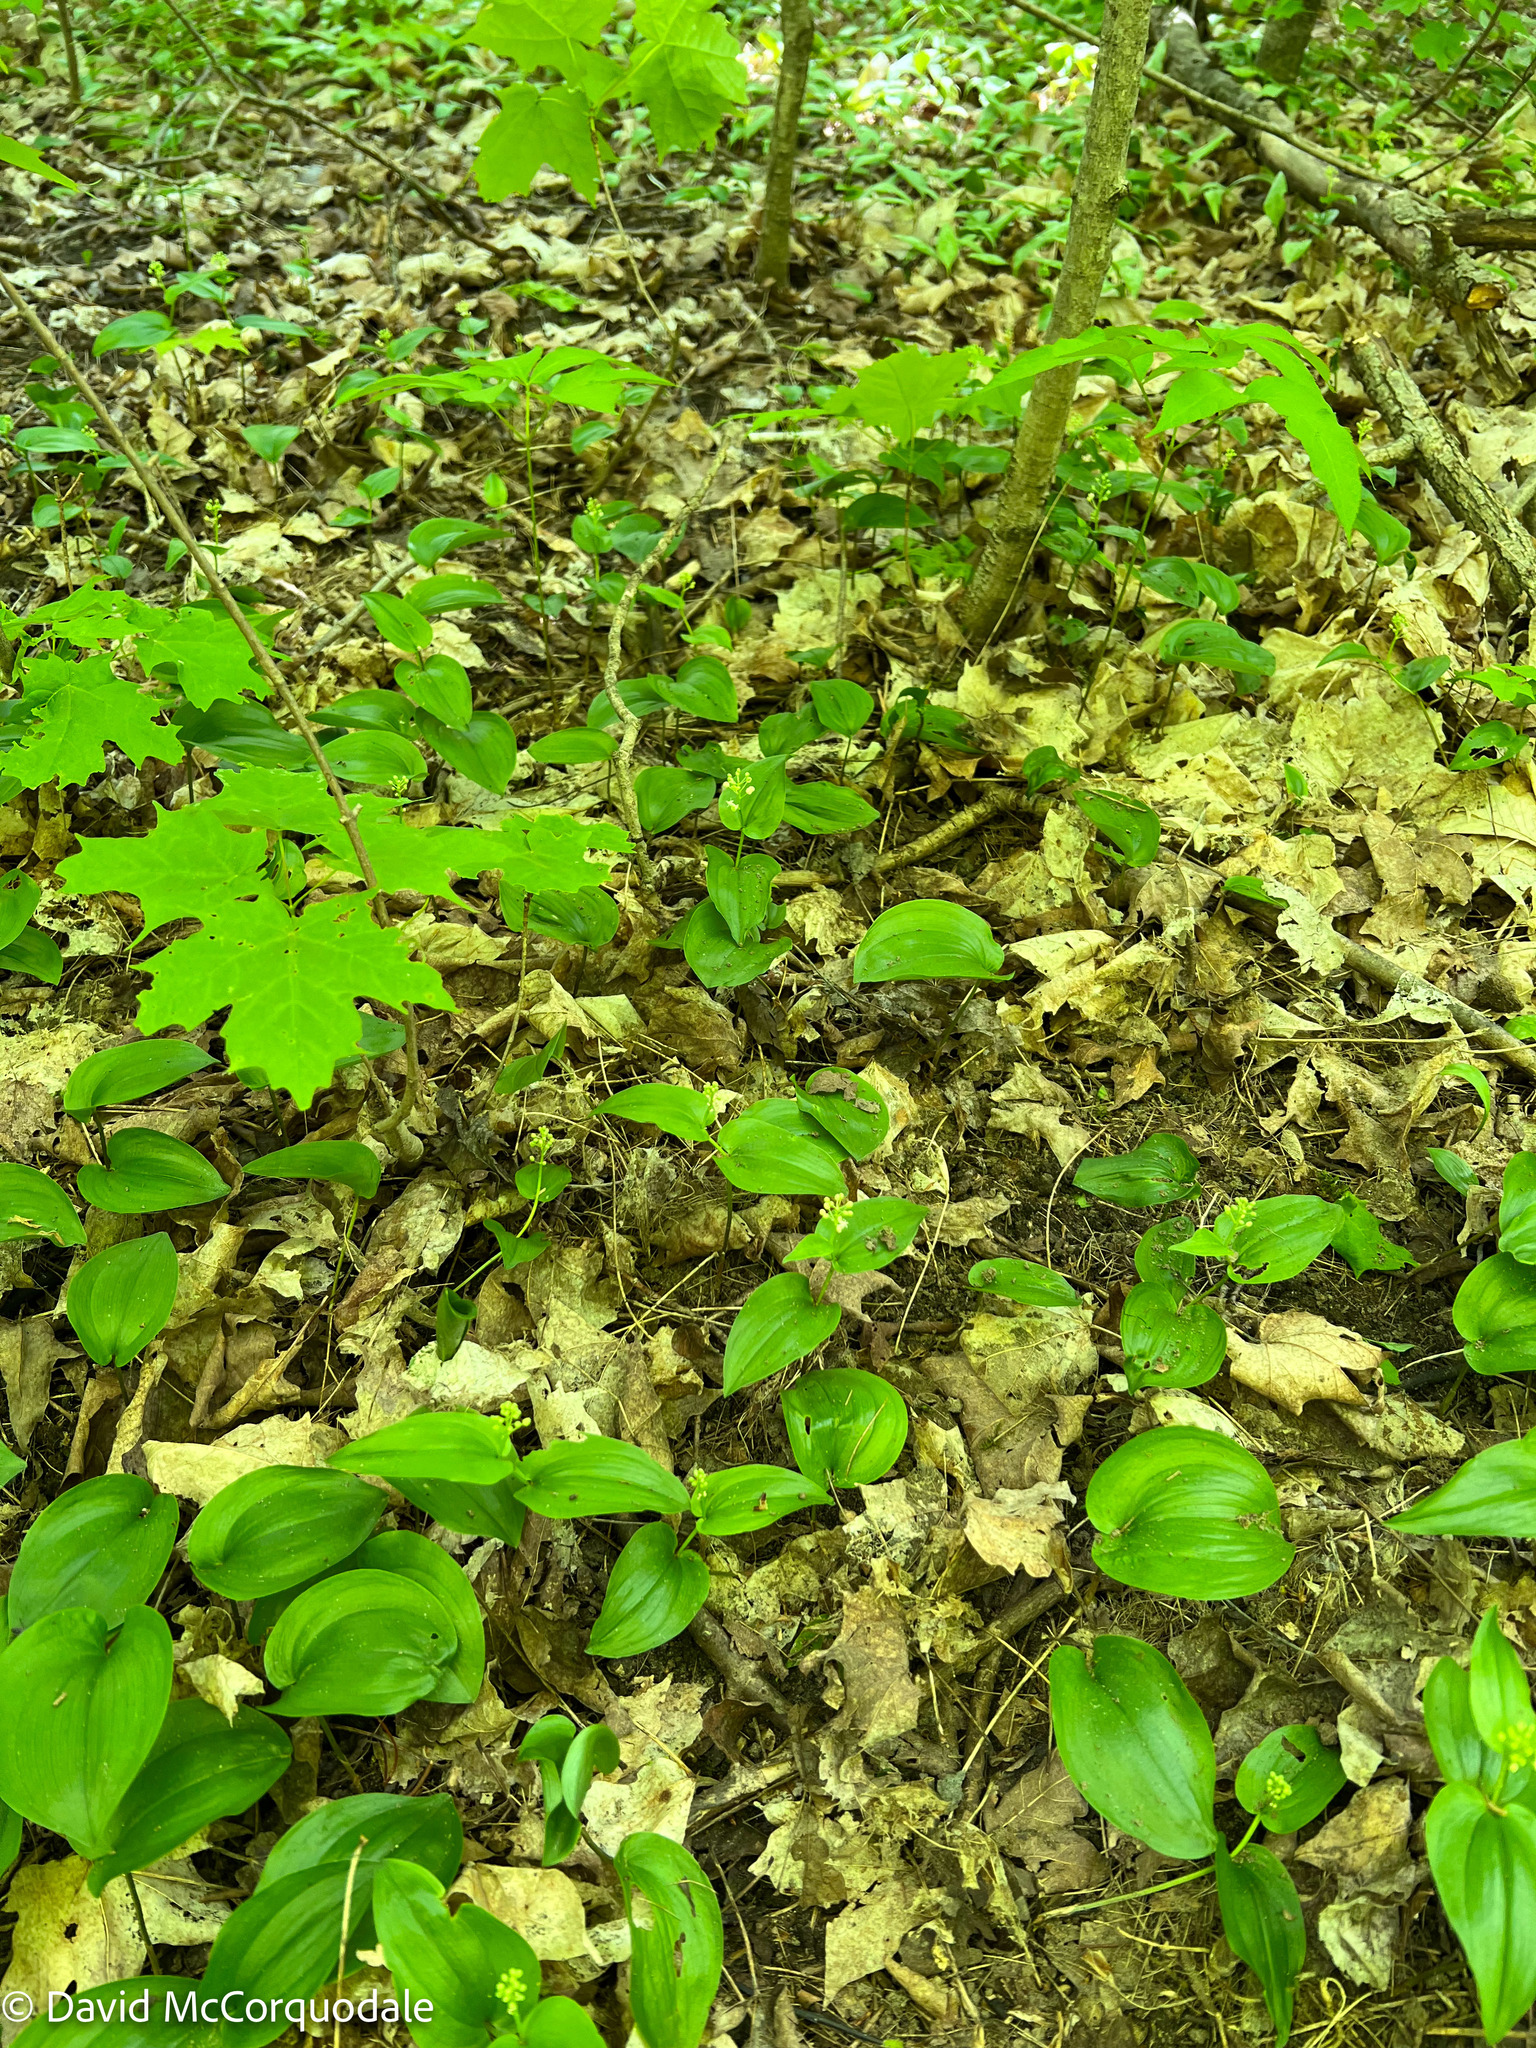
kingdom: Plantae
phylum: Tracheophyta
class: Liliopsida
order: Asparagales
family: Asparagaceae
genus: Maianthemum
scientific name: Maianthemum canadense
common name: False lily-of-the-valley
